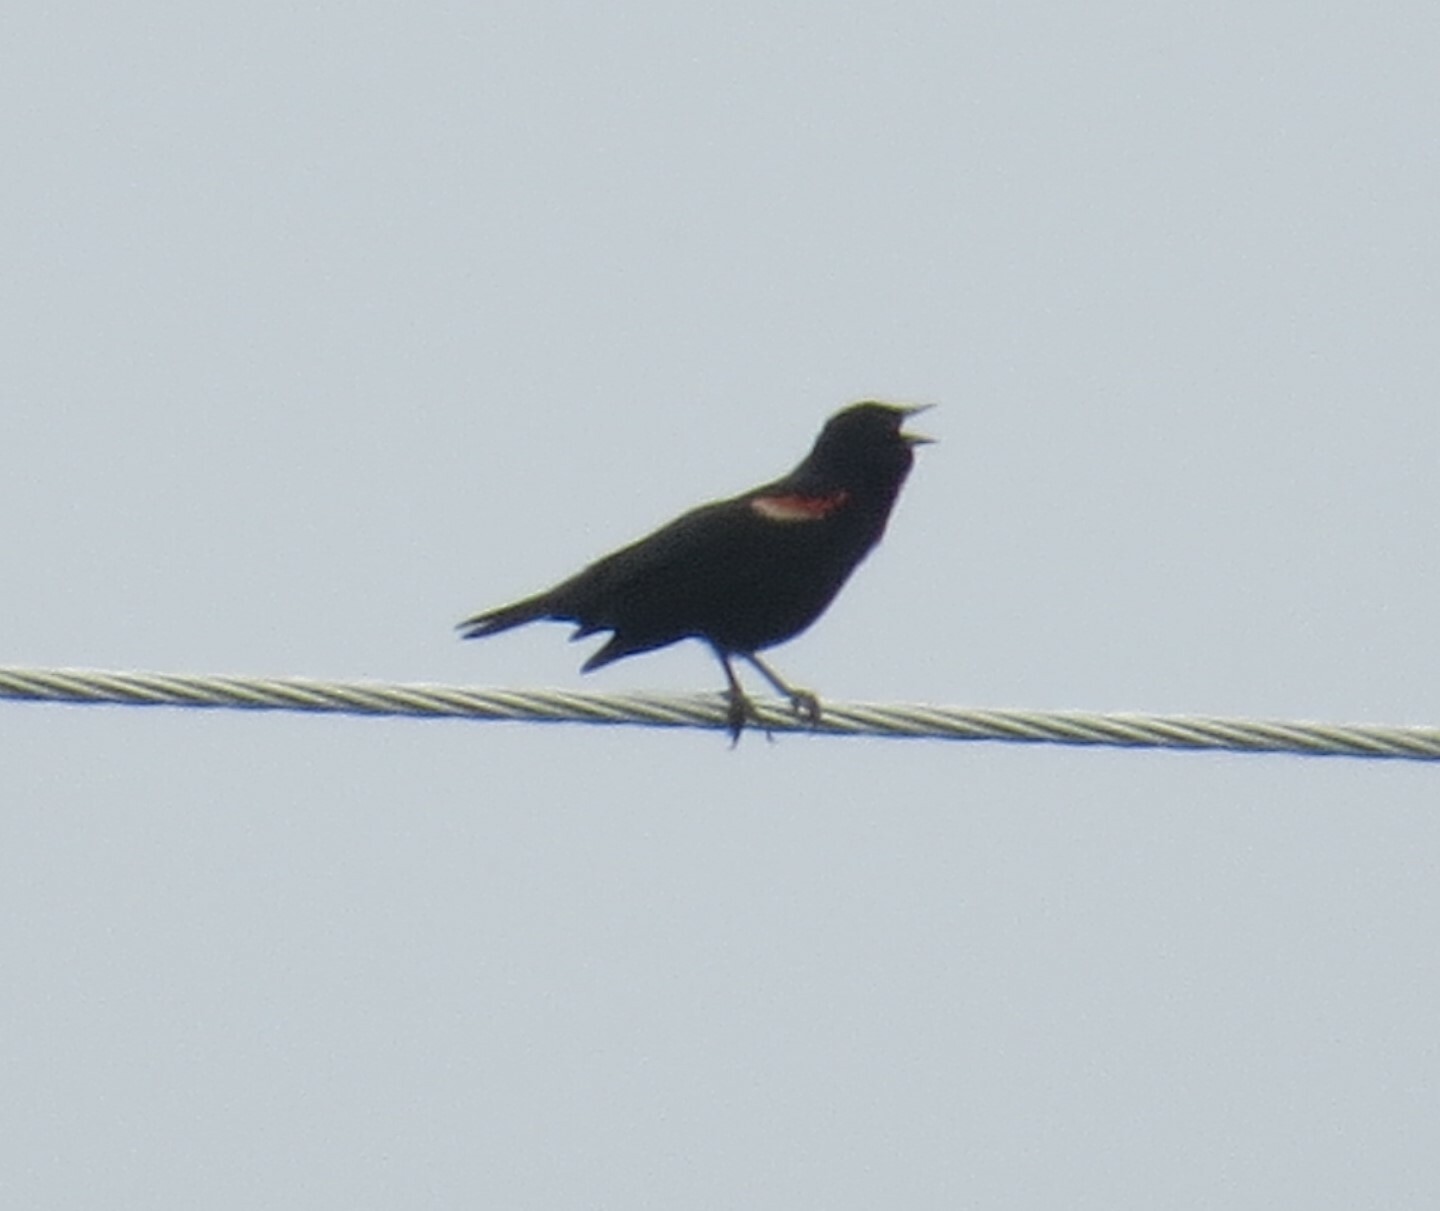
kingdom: Animalia
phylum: Chordata
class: Aves
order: Passeriformes
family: Icteridae
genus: Agelaius
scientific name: Agelaius phoeniceus
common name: Red-winged blackbird
